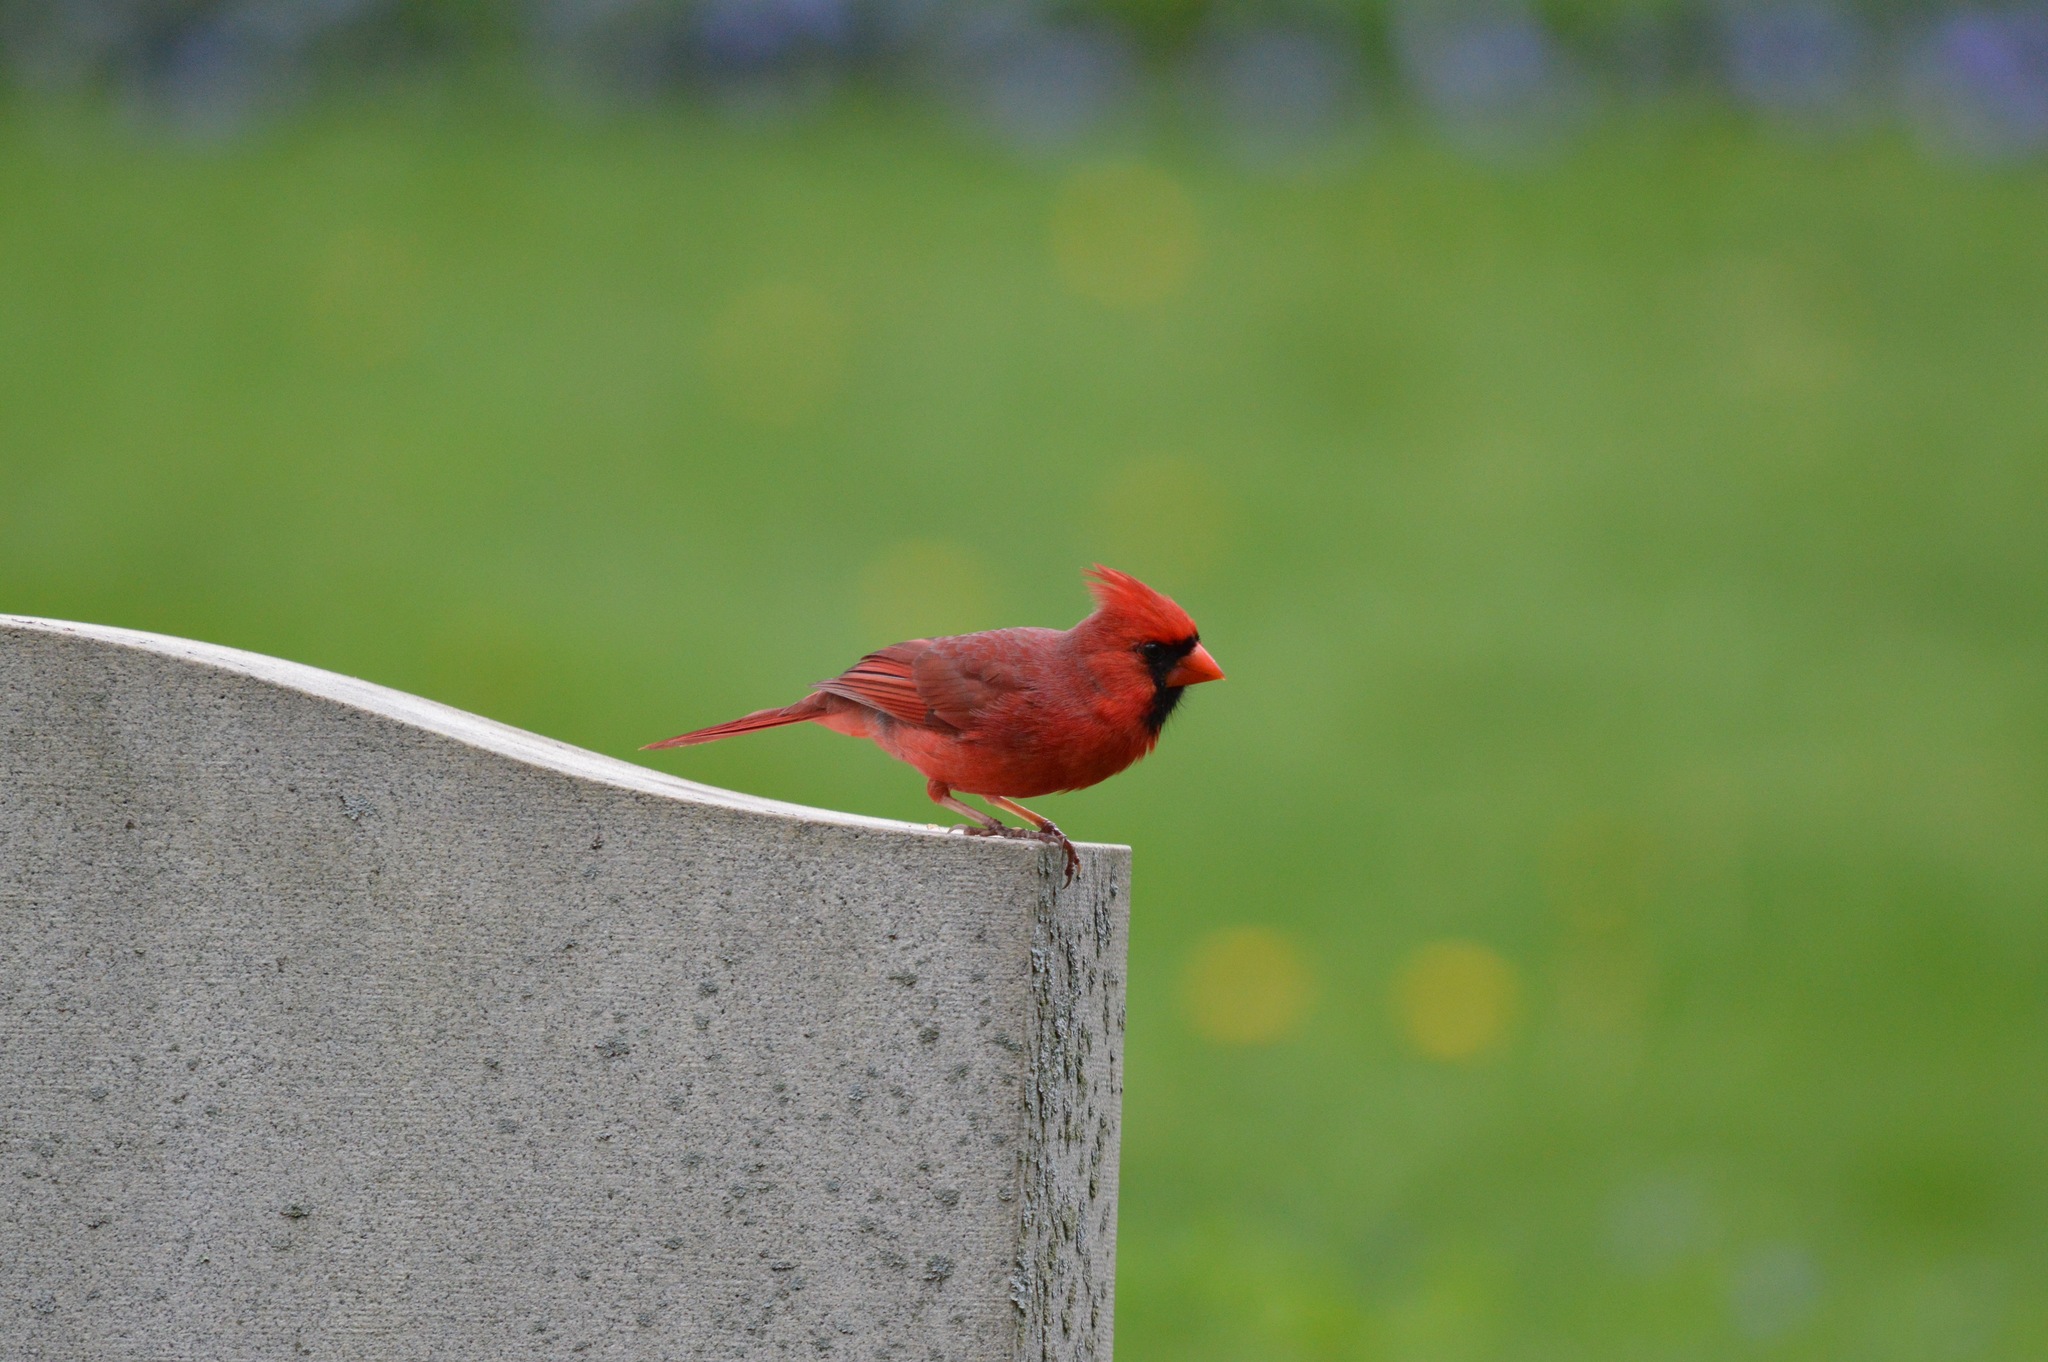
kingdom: Animalia
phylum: Chordata
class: Aves
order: Passeriformes
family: Cardinalidae
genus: Cardinalis
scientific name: Cardinalis cardinalis
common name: Northern cardinal
